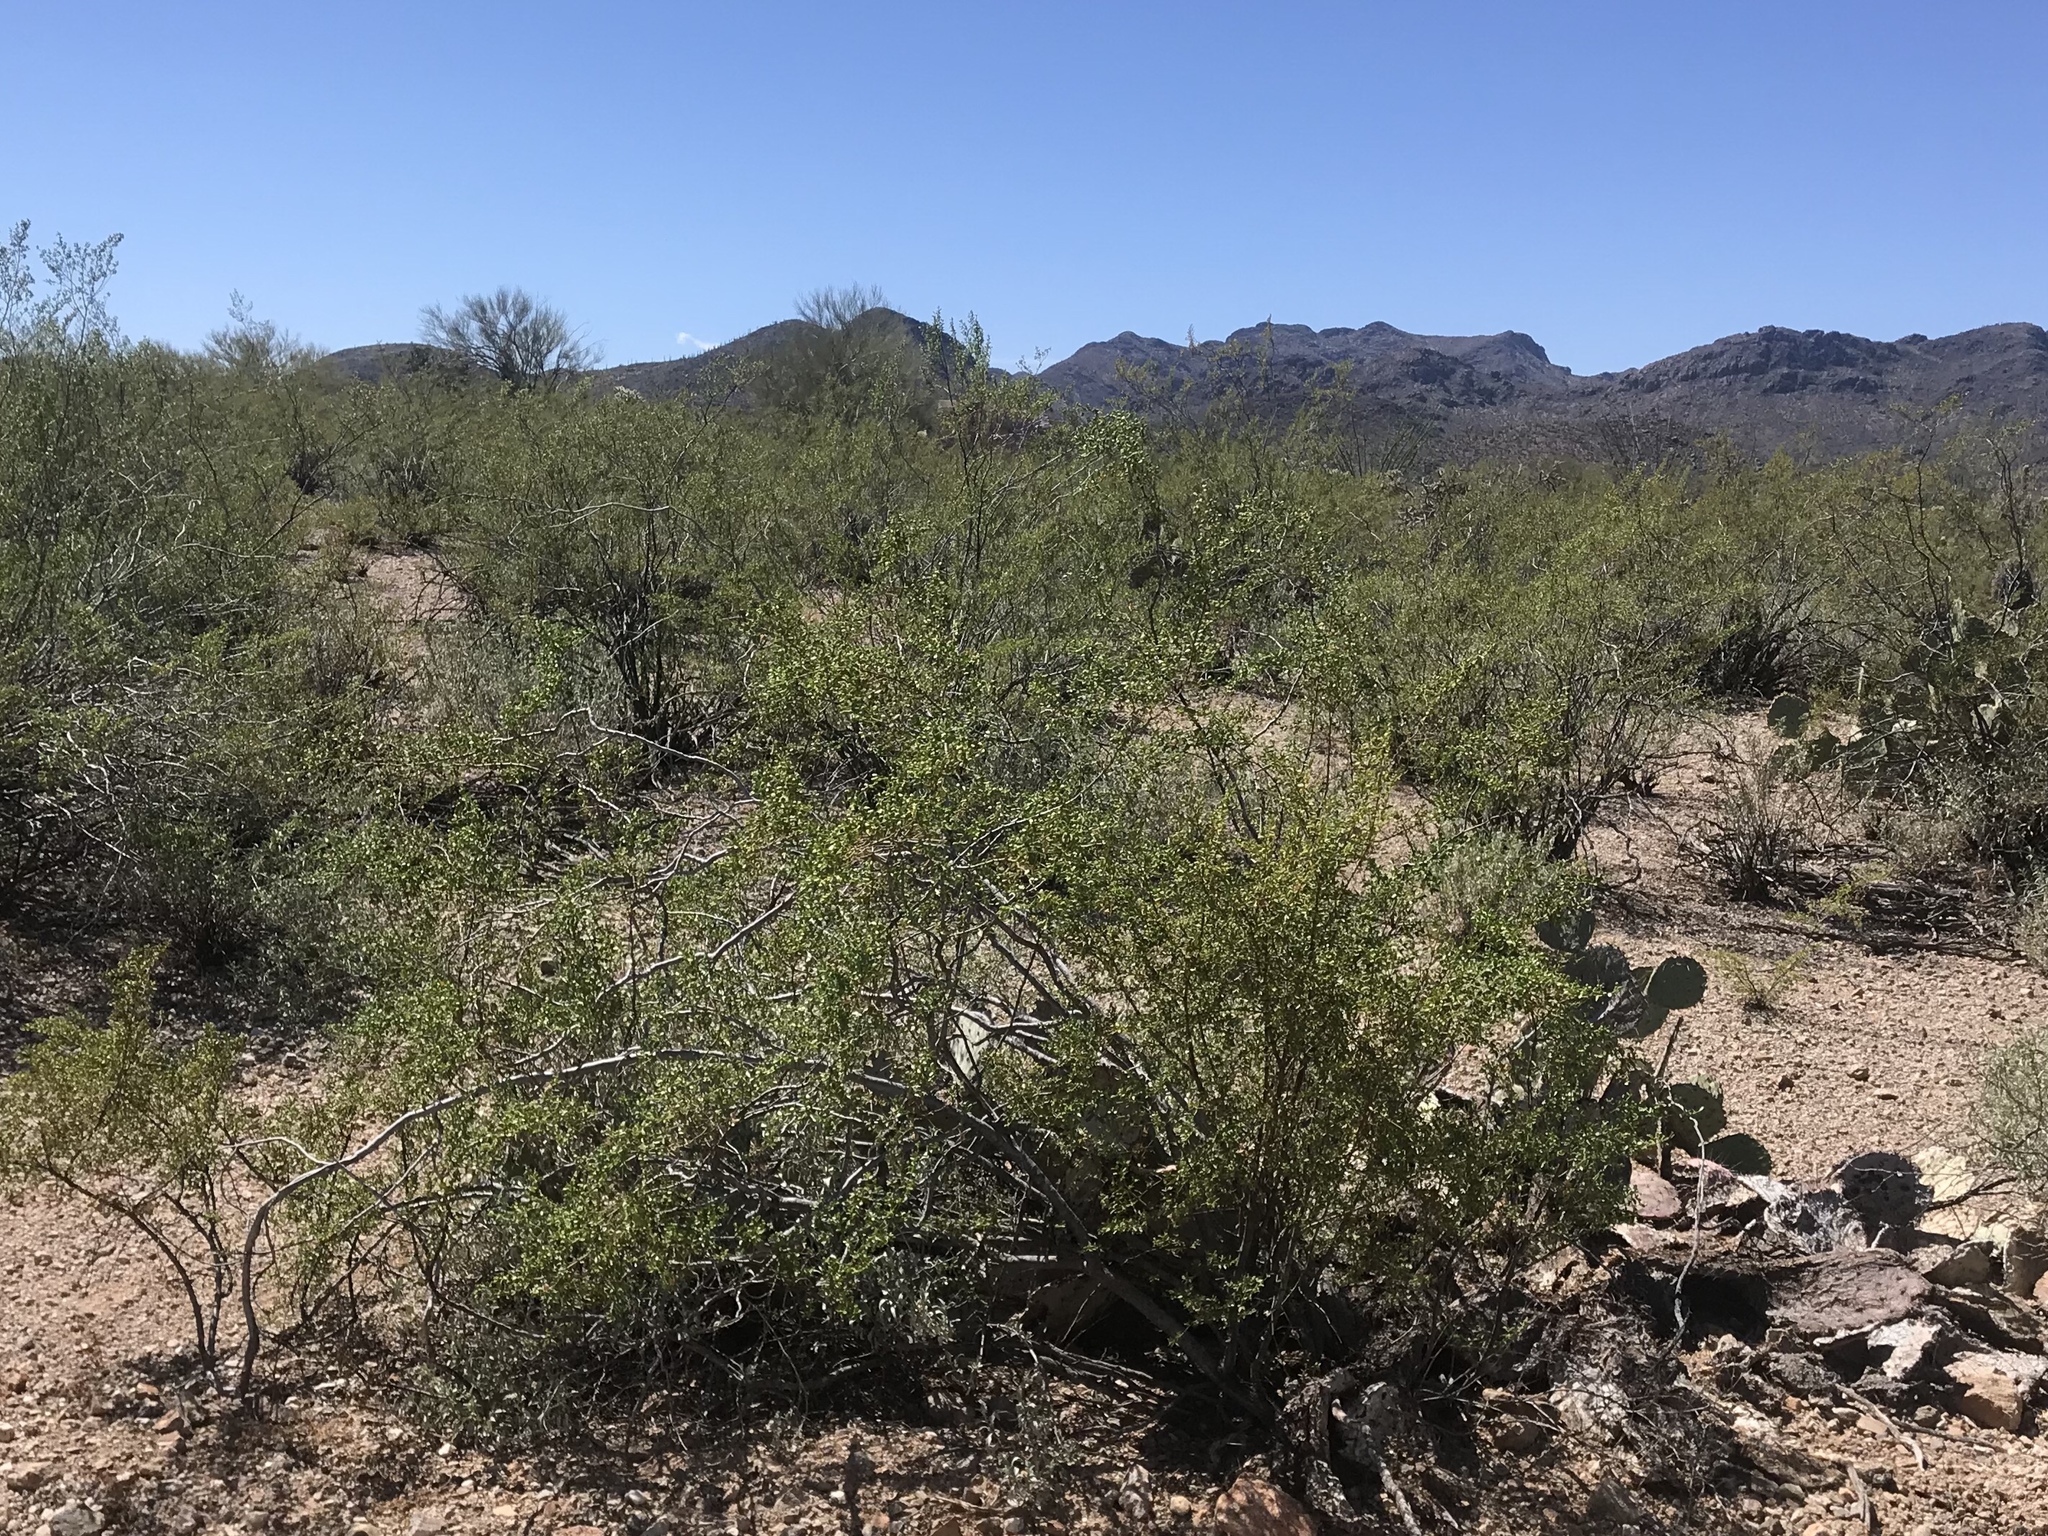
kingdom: Plantae
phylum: Tracheophyta
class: Magnoliopsida
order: Zygophyllales
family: Zygophyllaceae
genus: Larrea
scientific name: Larrea tridentata
